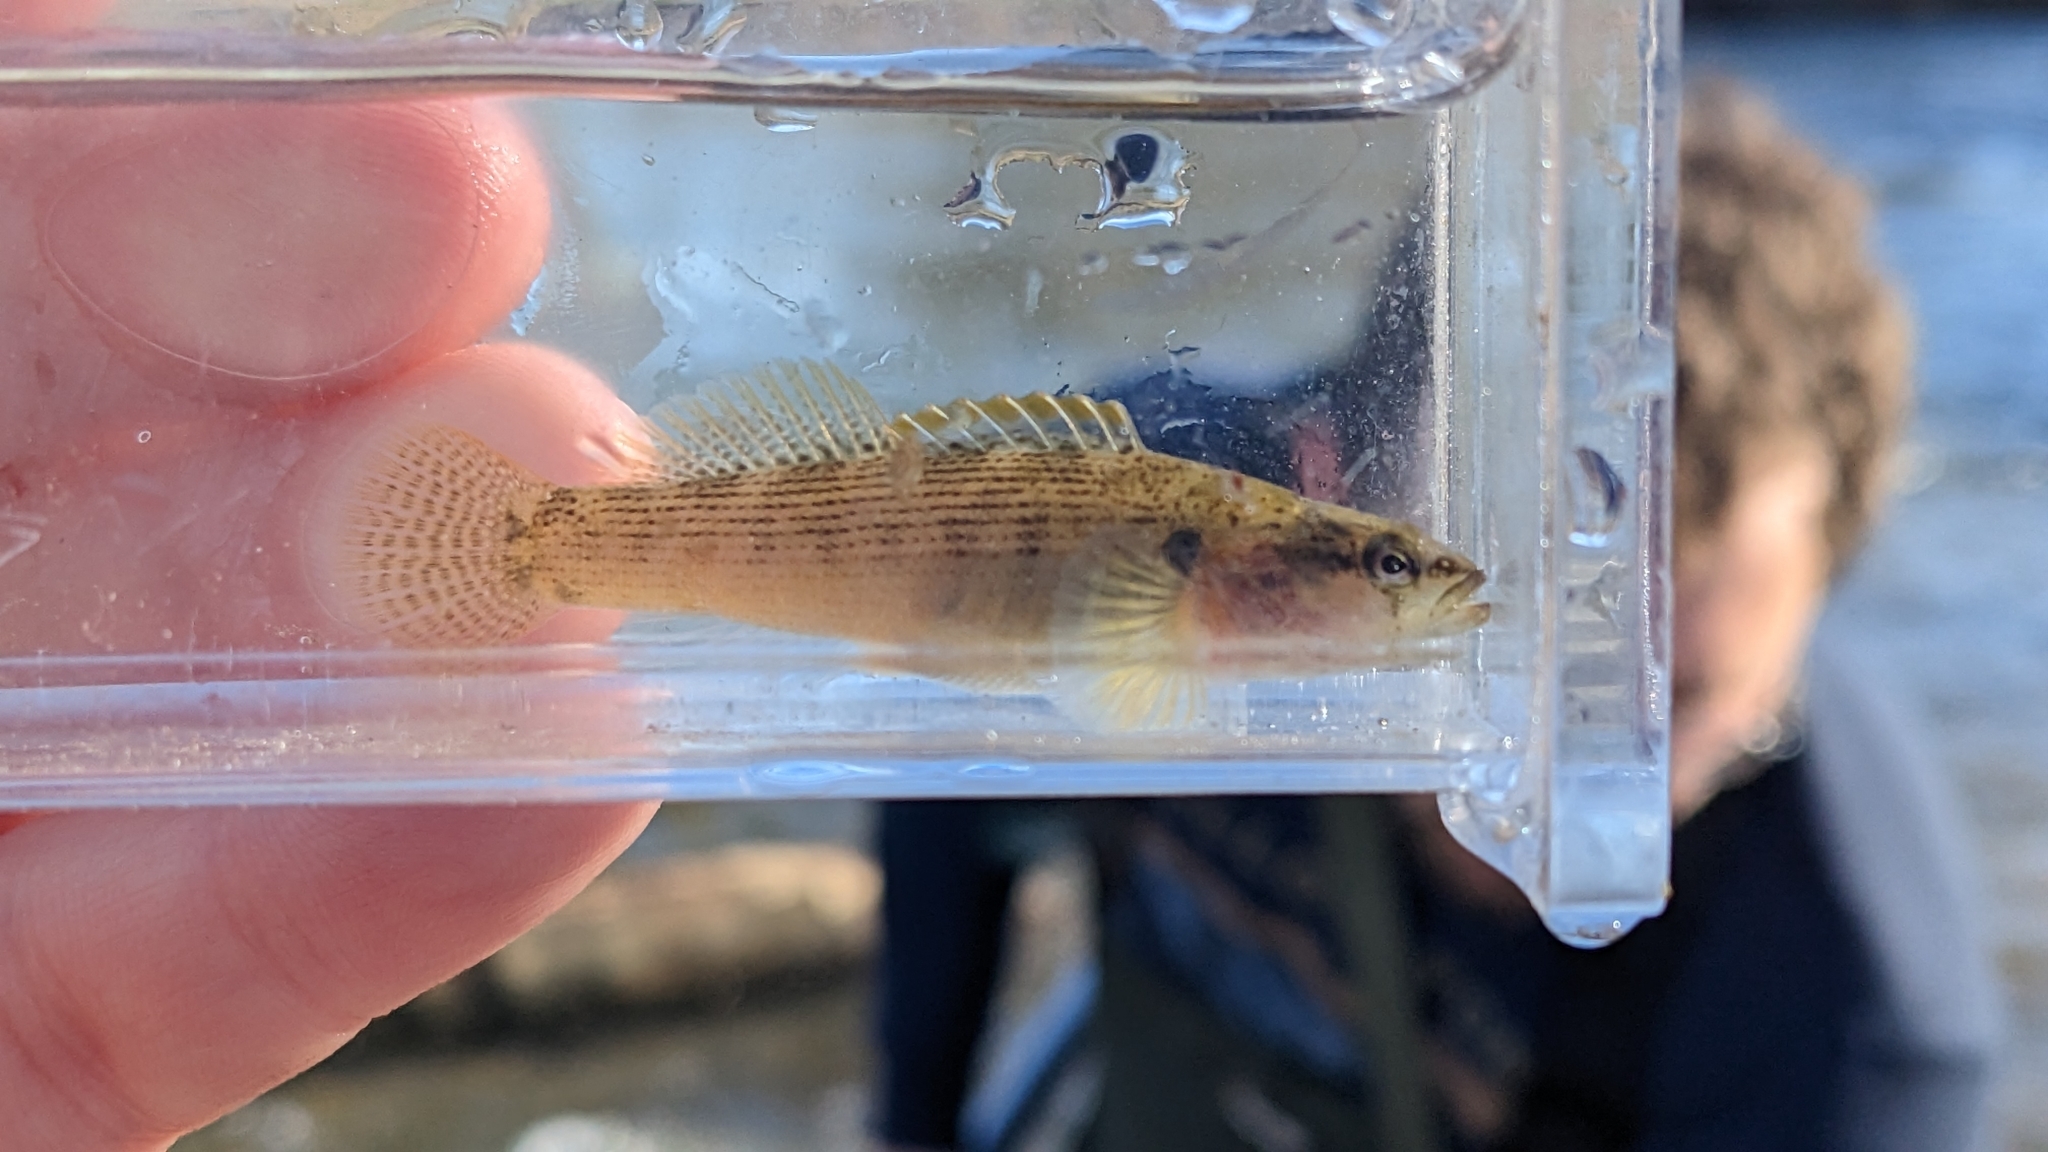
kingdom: Animalia
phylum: Chordata
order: Perciformes
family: Percidae
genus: Etheostoma
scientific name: Etheostoma flabellare
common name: Fantail darter
